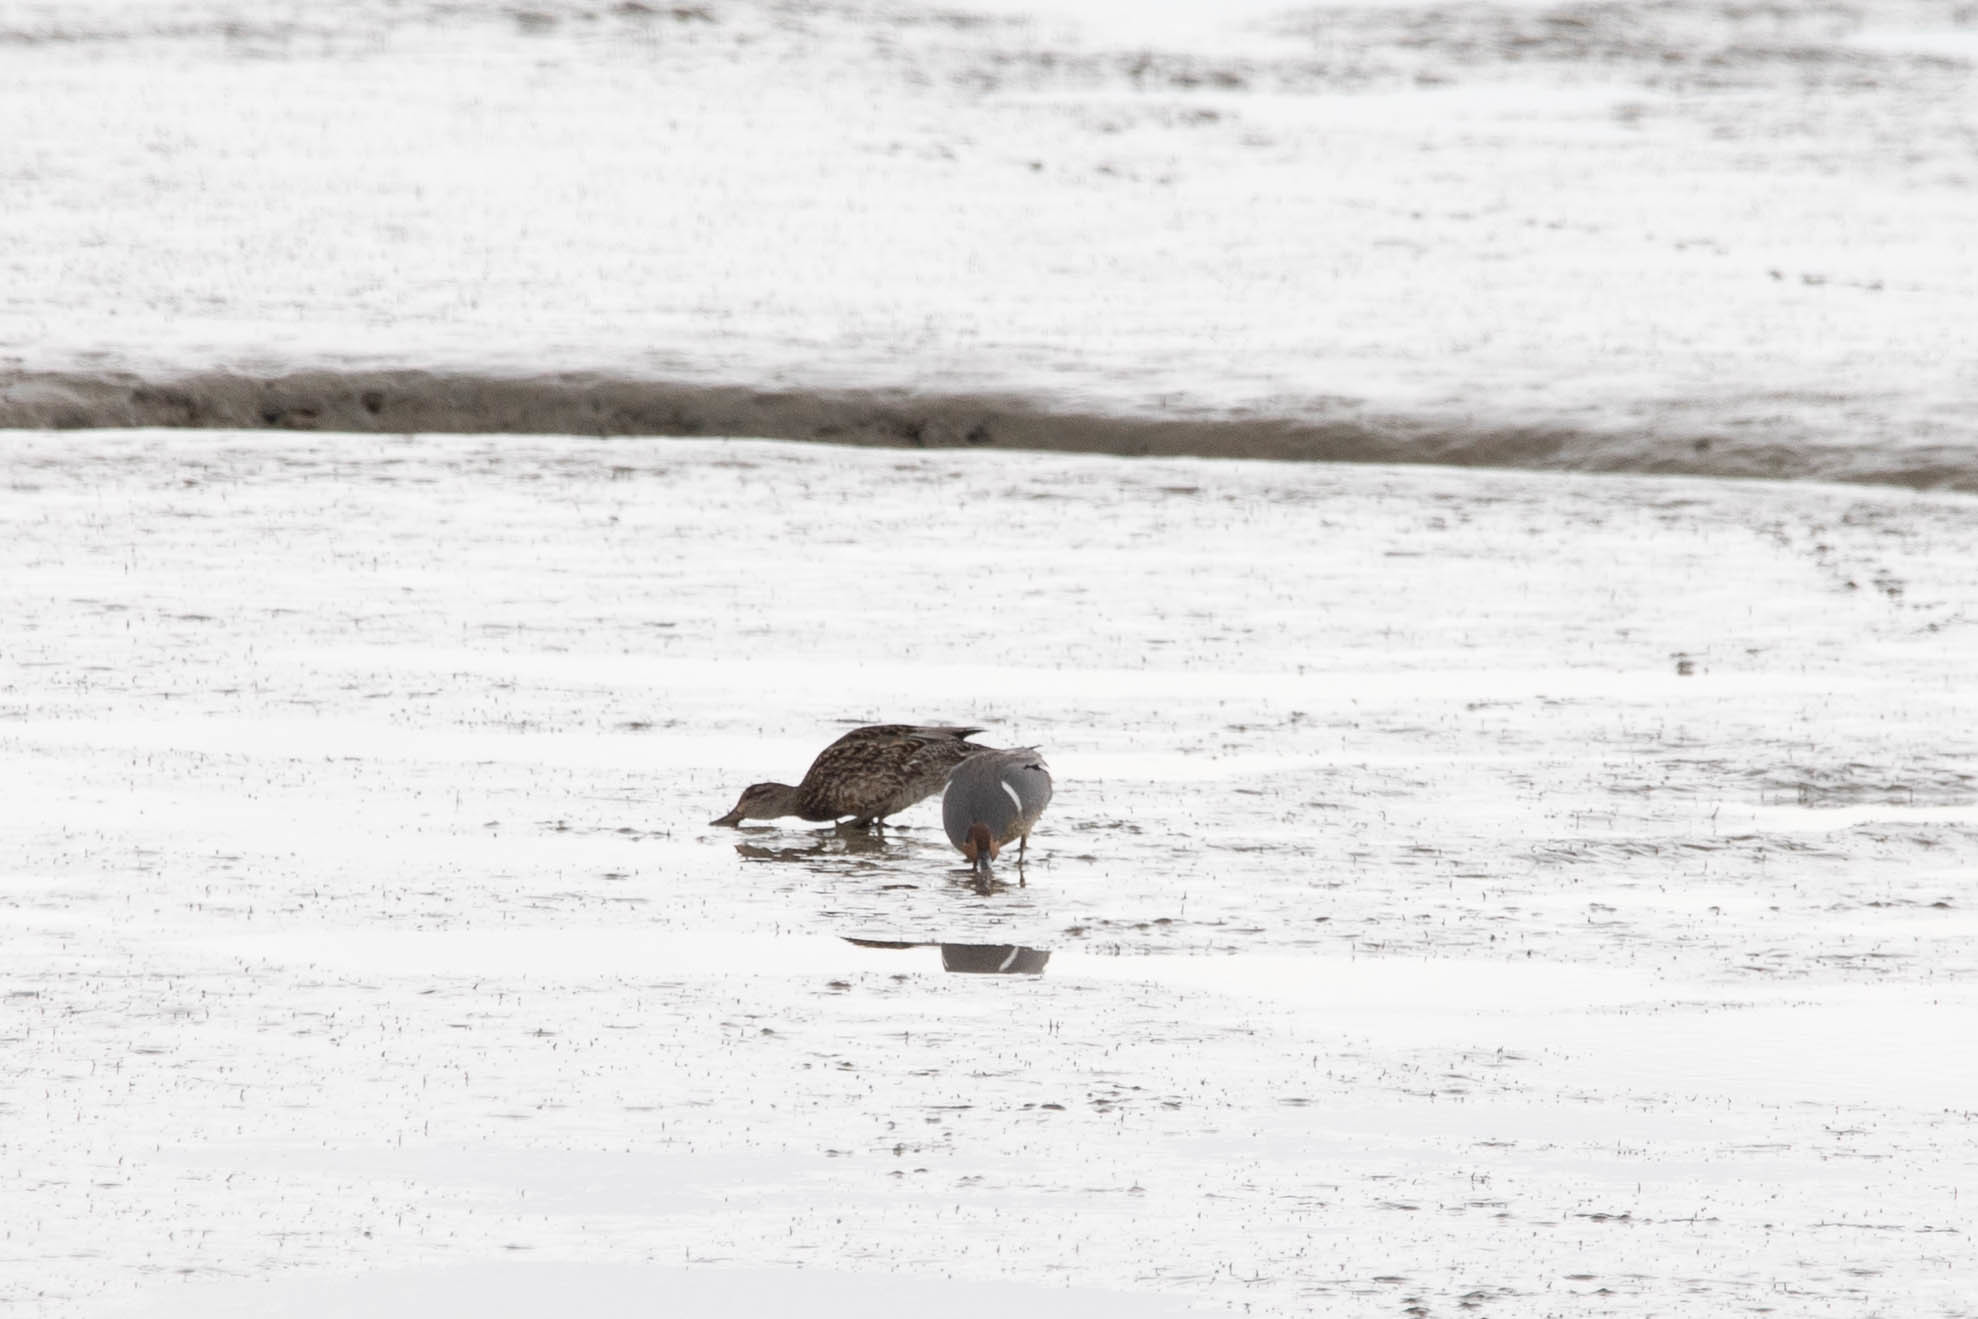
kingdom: Animalia
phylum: Chordata
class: Aves
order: Anseriformes
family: Anatidae
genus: Anas
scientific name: Anas carolinensis
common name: Green-winged teal
